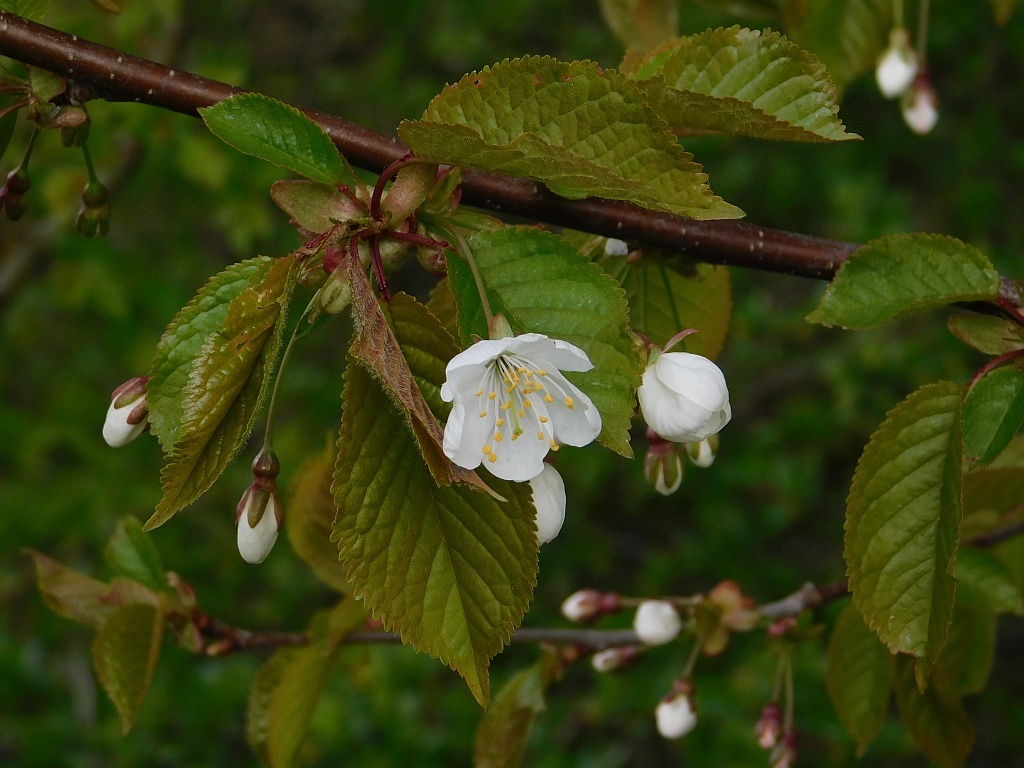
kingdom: Plantae
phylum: Tracheophyta
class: Magnoliopsida
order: Rosales
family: Rosaceae
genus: Prunus
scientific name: Prunus avium
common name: Sweet cherry
